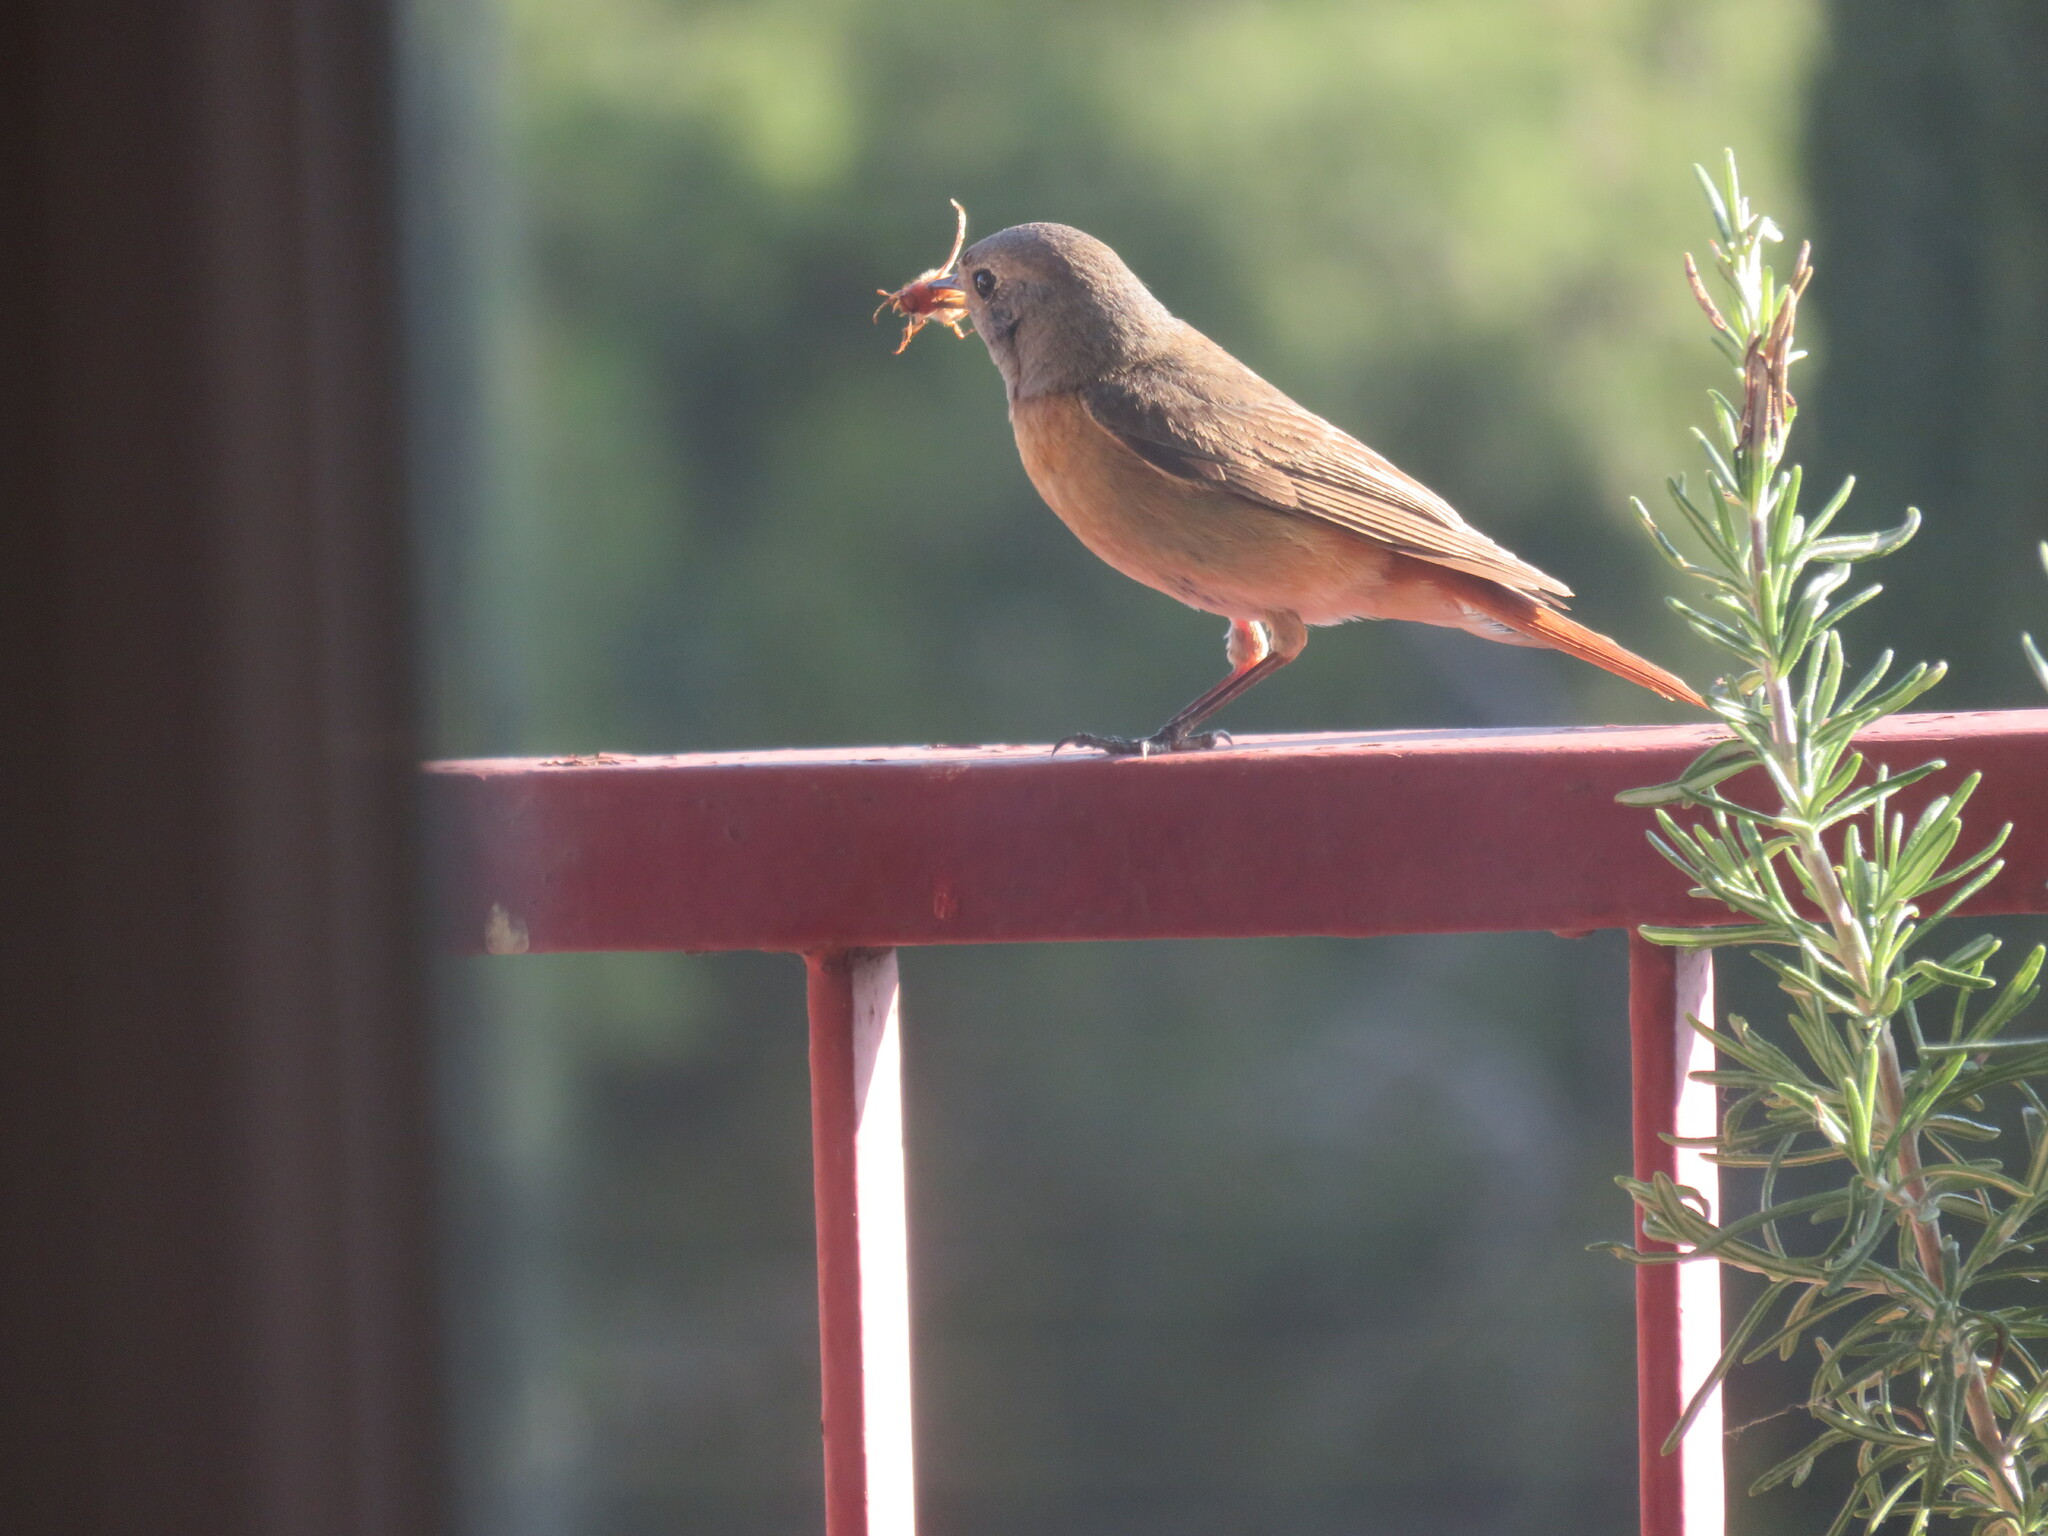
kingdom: Animalia
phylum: Chordata
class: Aves
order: Passeriformes
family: Muscicapidae
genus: Phoenicurus
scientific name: Phoenicurus phoenicurus
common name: Common redstart
